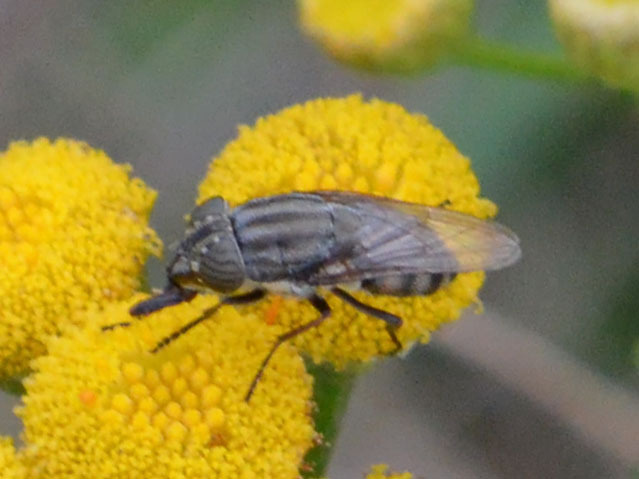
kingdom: Animalia
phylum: Arthropoda
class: Insecta
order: Diptera
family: Calliphoridae
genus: Stomorhina
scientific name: Stomorhina lunata
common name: Locust blowfly
